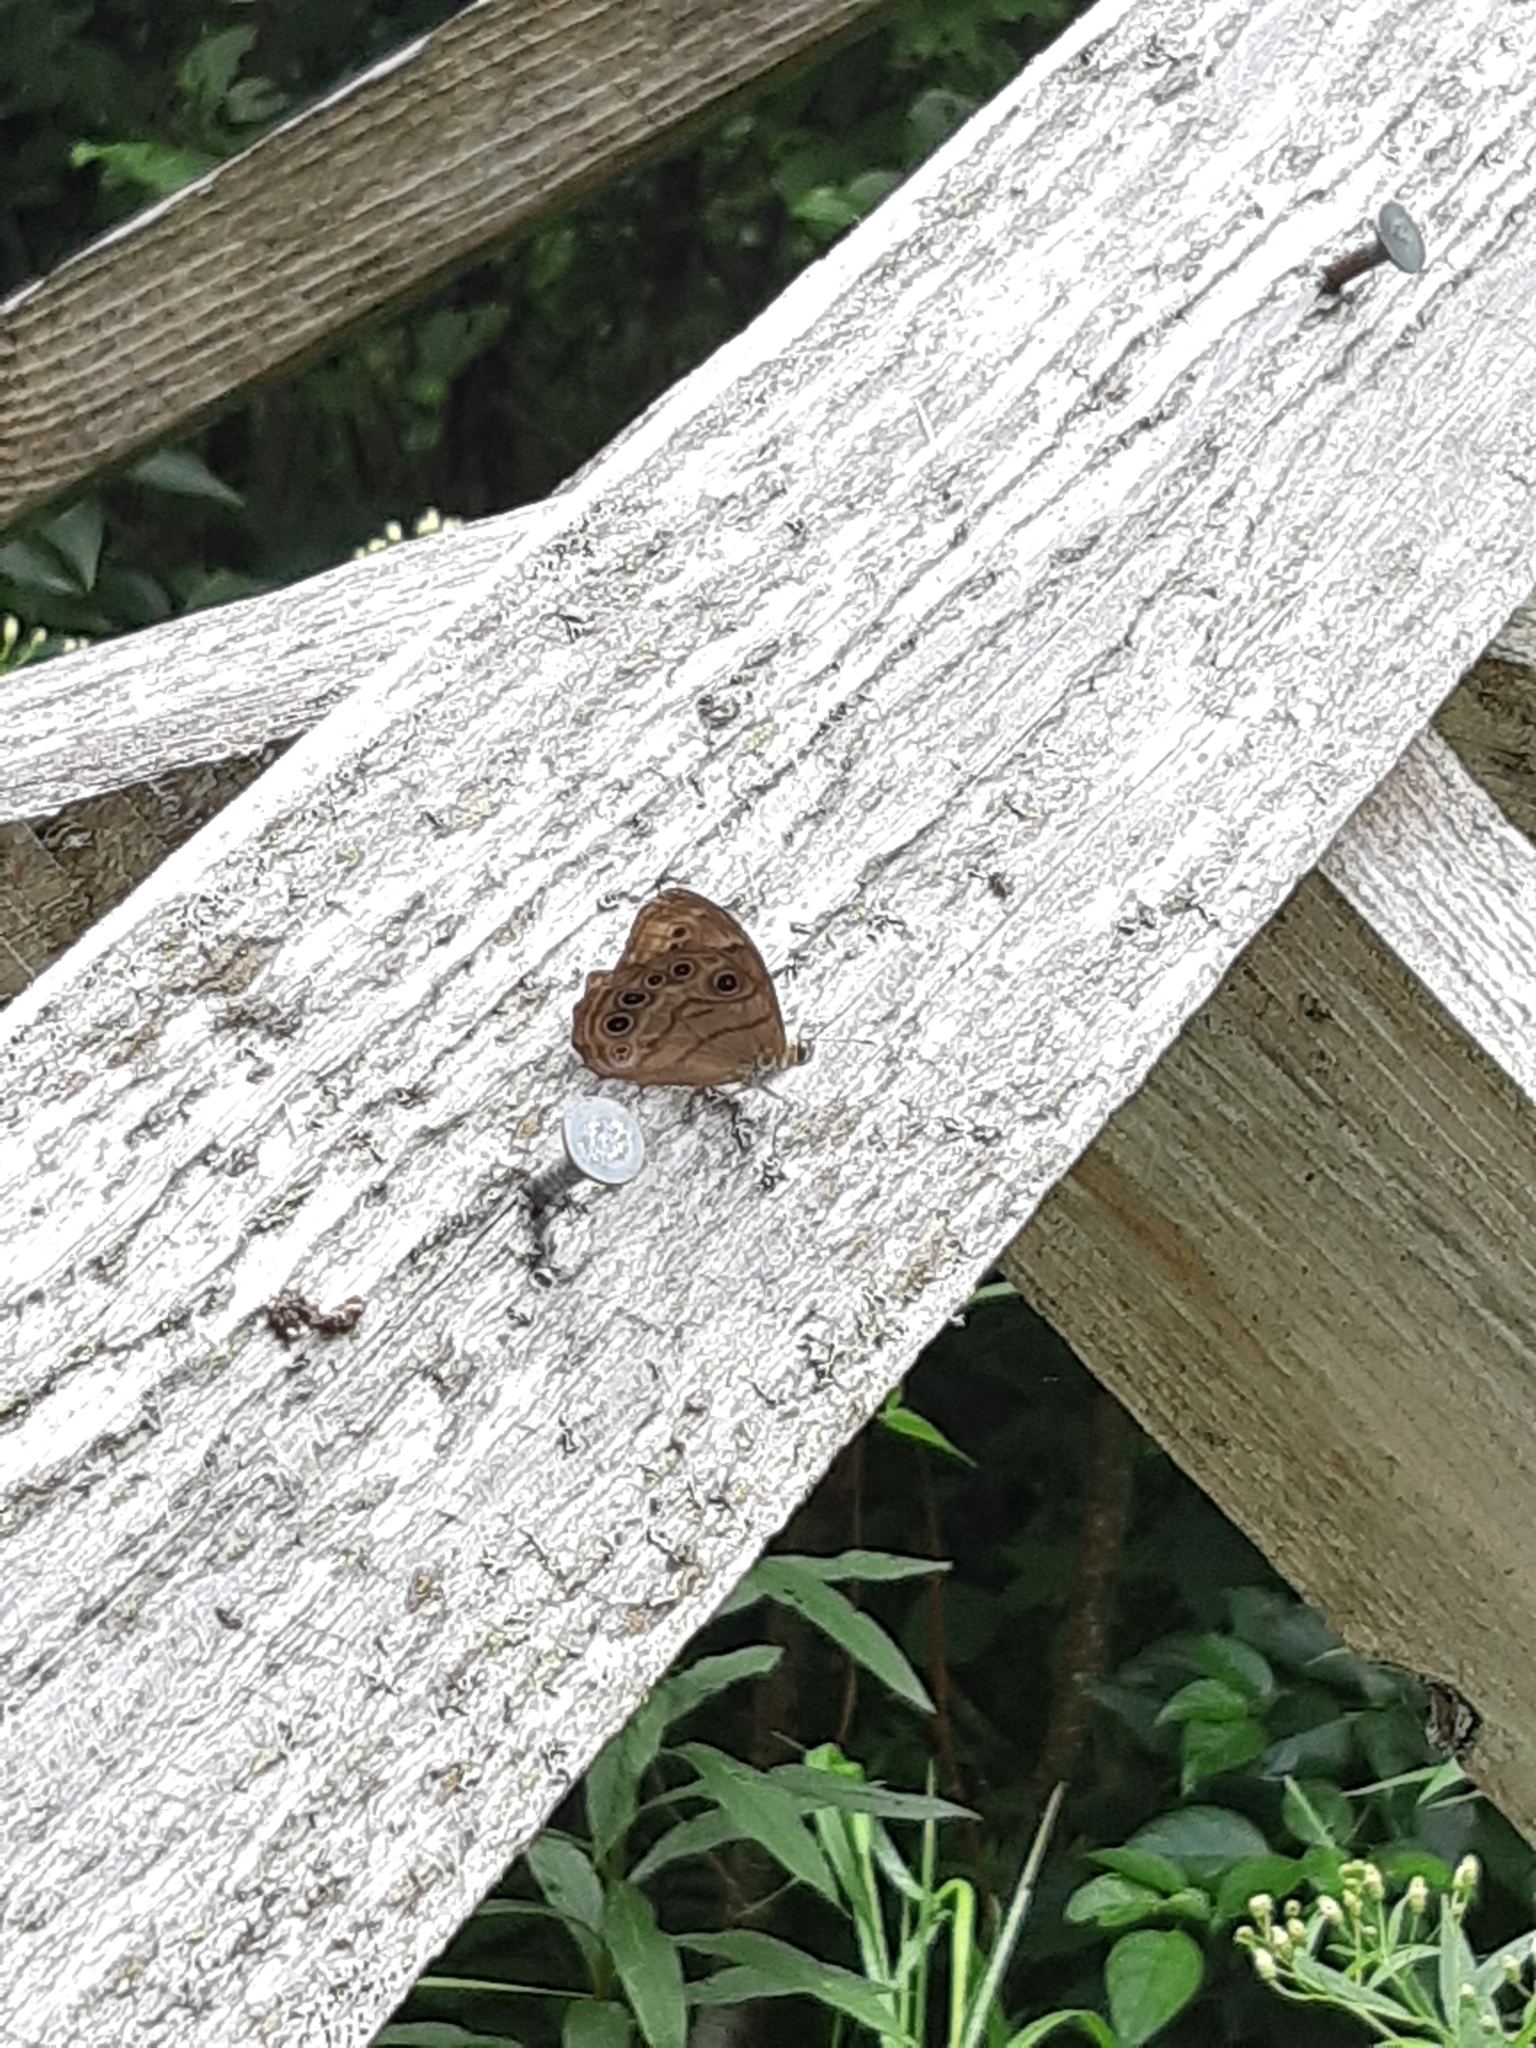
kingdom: Animalia
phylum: Arthropoda
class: Insecta
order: Lepidoptera
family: Nymphalidae
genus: Lethe
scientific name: Lethe anthedon
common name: Northern pearly-eye
